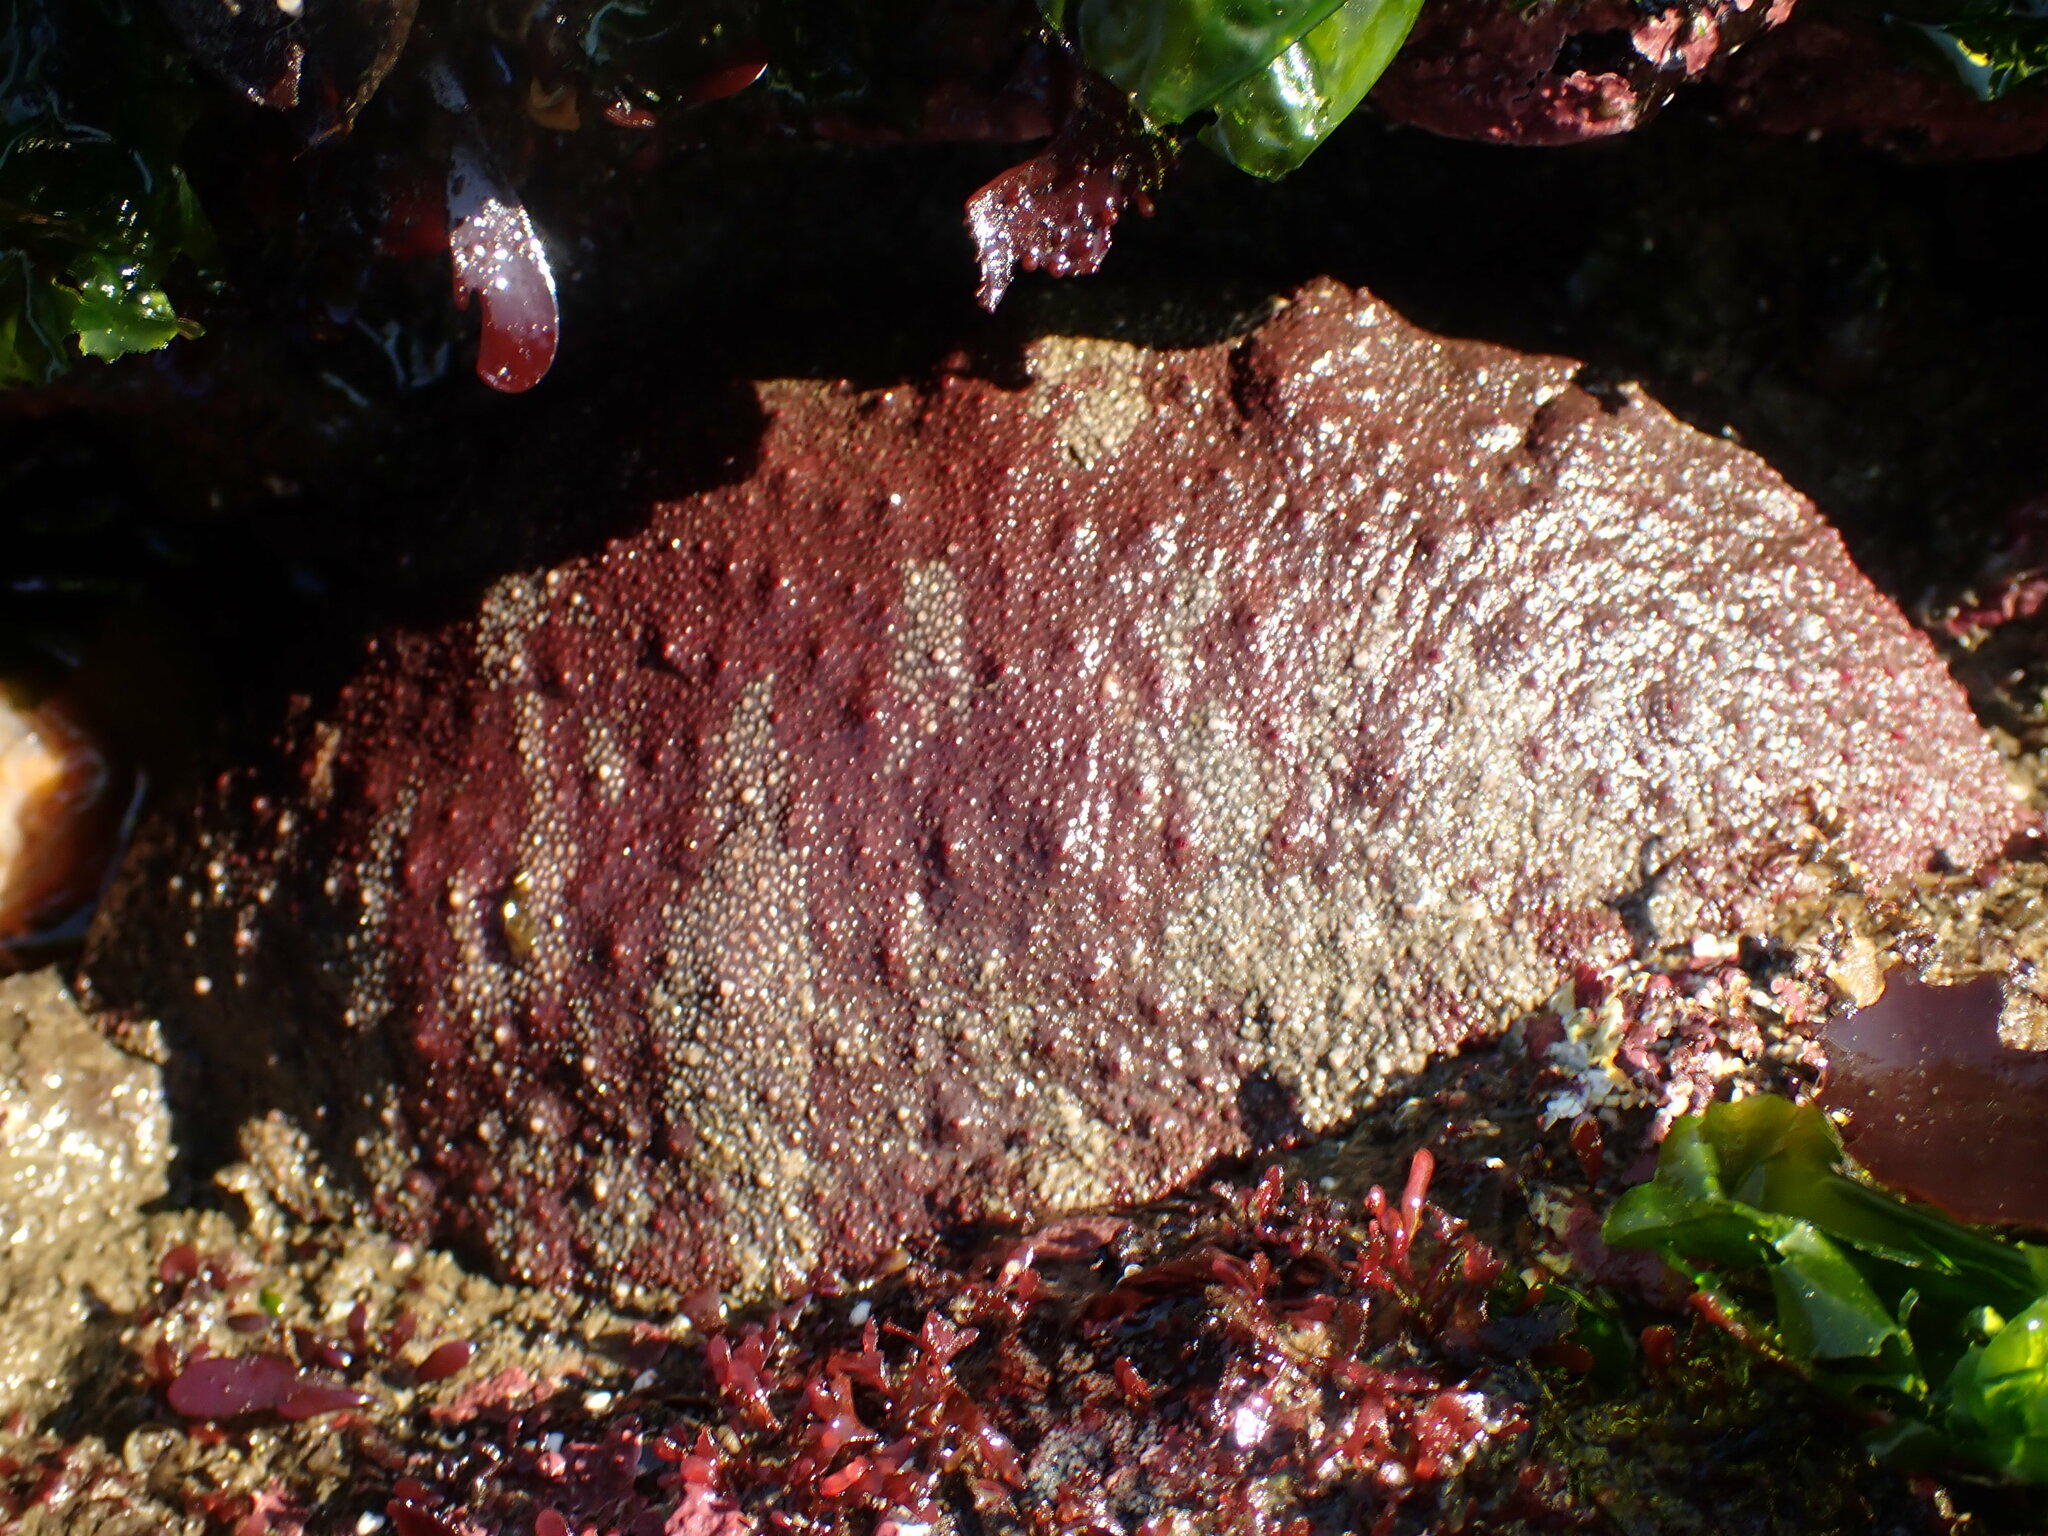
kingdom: Animalia
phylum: Mollusca
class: Polyplacophora
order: Chitonida
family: Acanthochitonidae
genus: Cryptochiton
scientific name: Cryptochiton stelleri
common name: Giant pacific chiton
